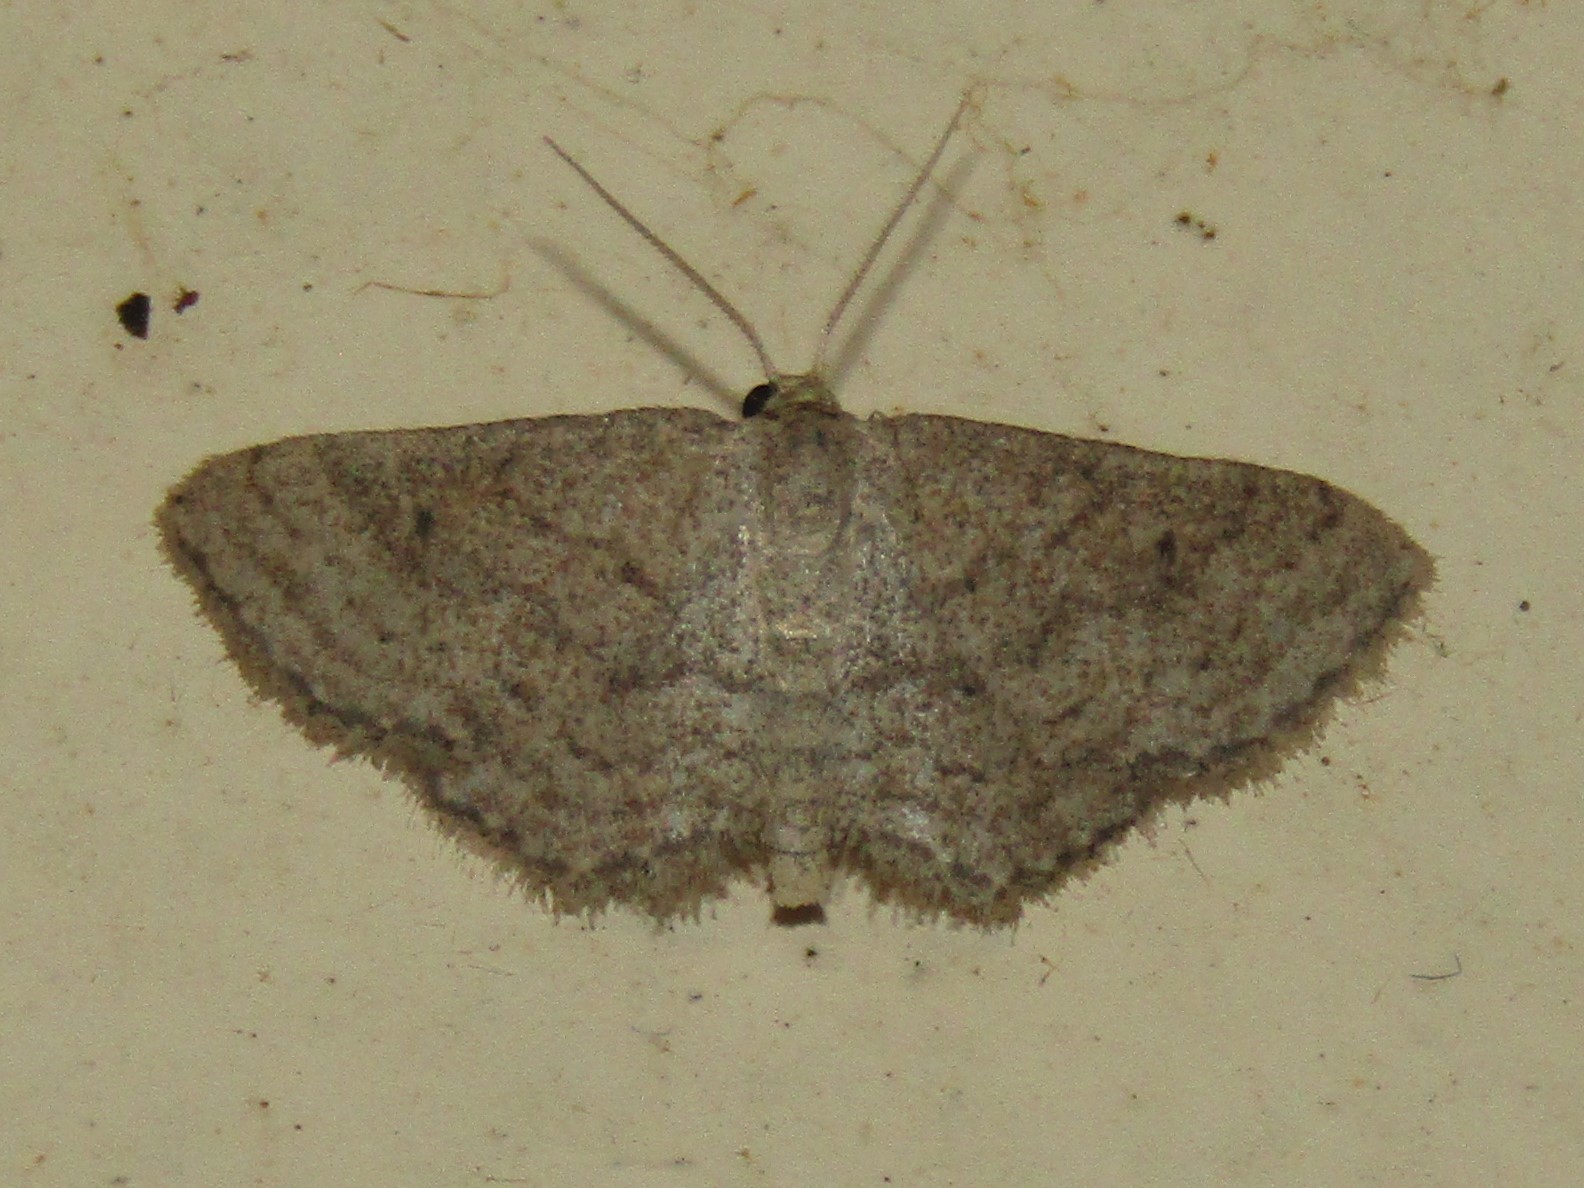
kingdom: Animalia
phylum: Arthropoda
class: Insecta
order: Lepidoptera
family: Geometridae
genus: Lobocleta
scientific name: Lobocleta ossularia
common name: Drab brown wave
